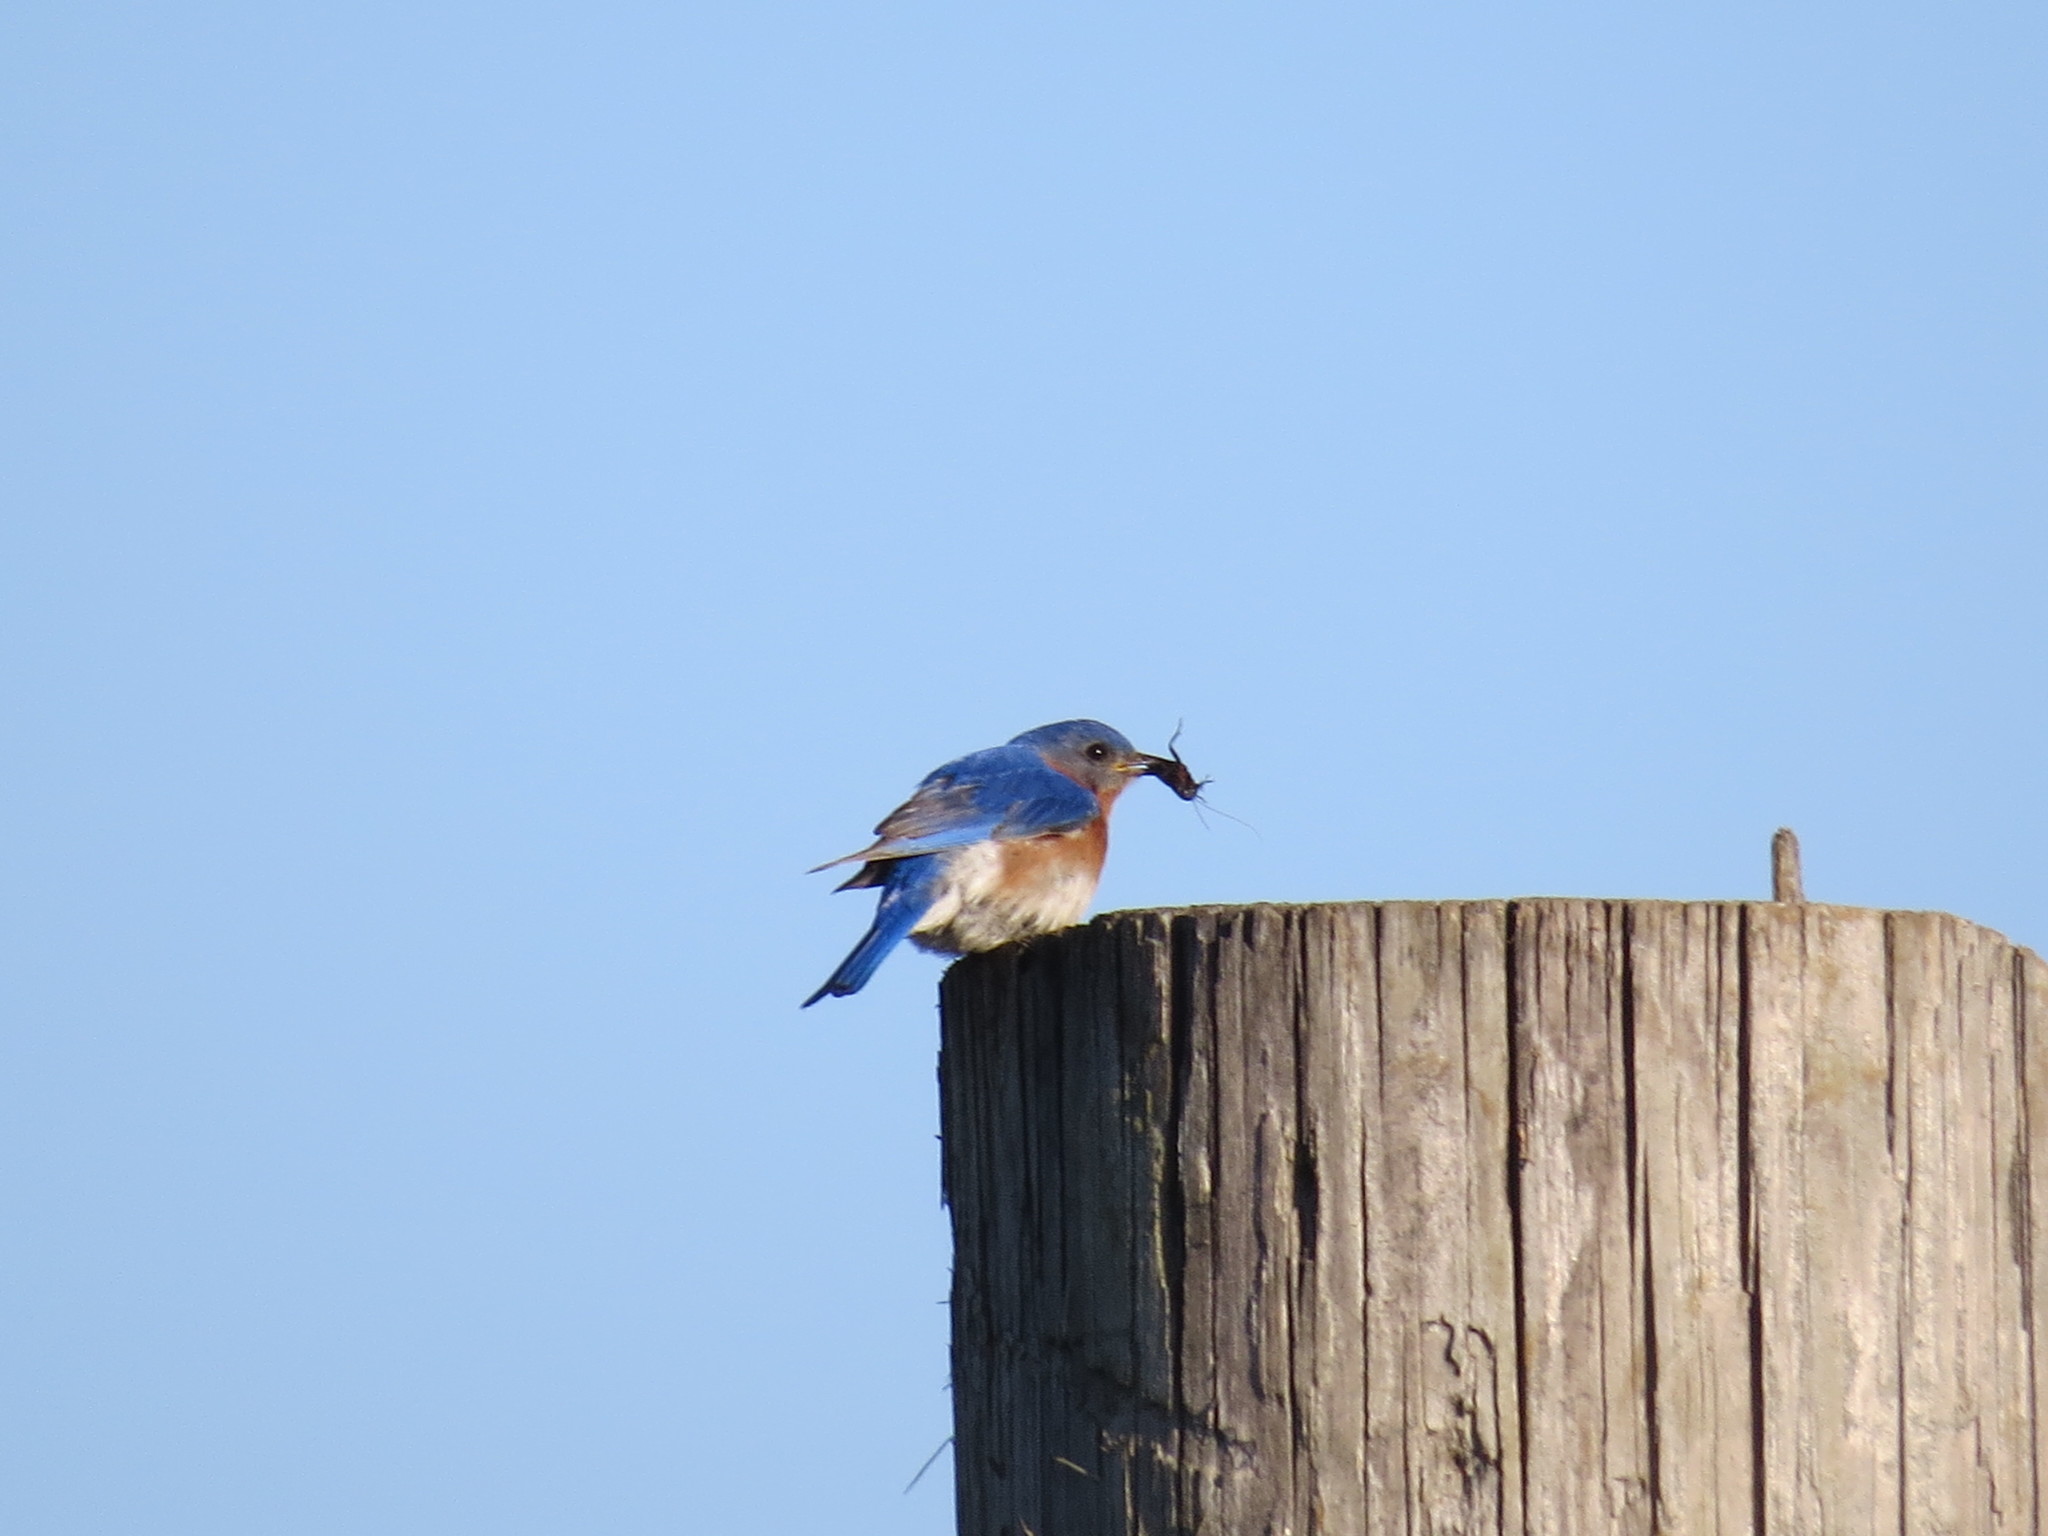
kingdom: Animalia
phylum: Chordata
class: Aves
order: Passeriformes
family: Turdidae
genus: Sialia
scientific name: Sialia sialis
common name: Eastern bluebird
